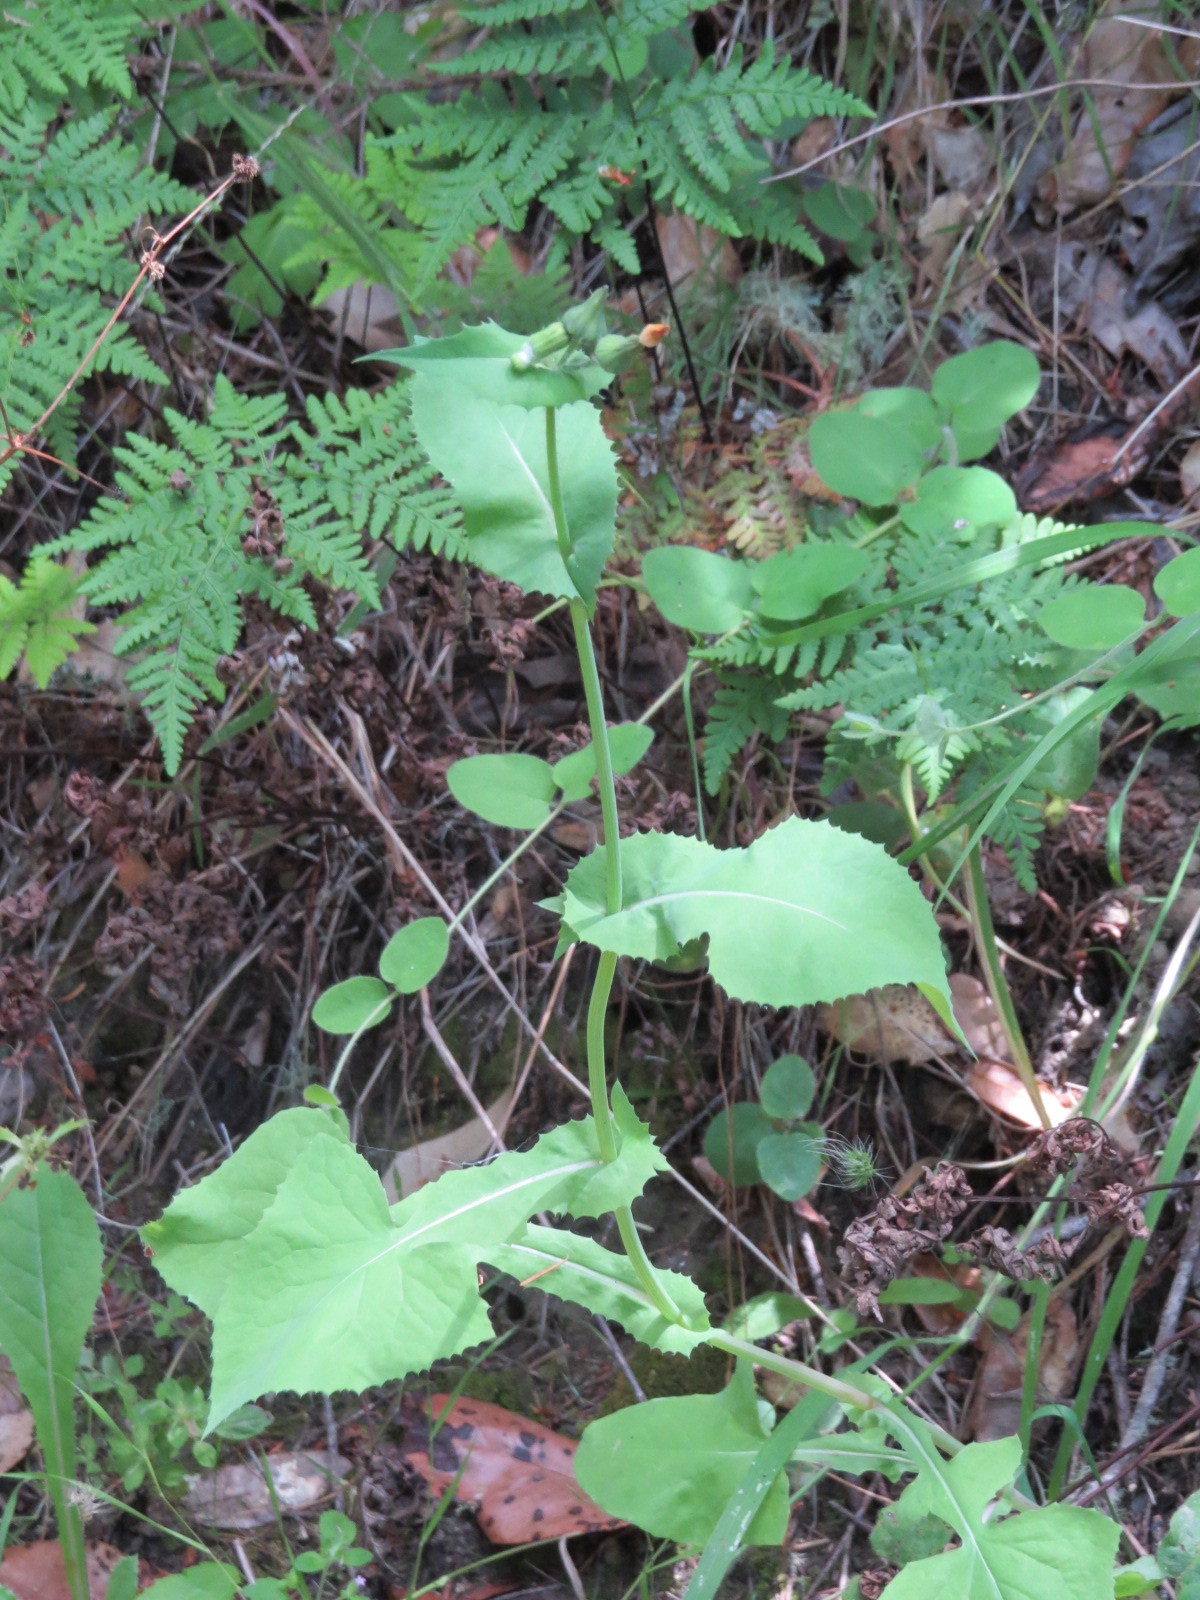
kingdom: Plantae
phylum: Tracheophyta
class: Magnoliopsida
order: Asterales
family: Asteraceae
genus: Sonchus
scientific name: Sonchus oleraceus
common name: Common sowthistle
